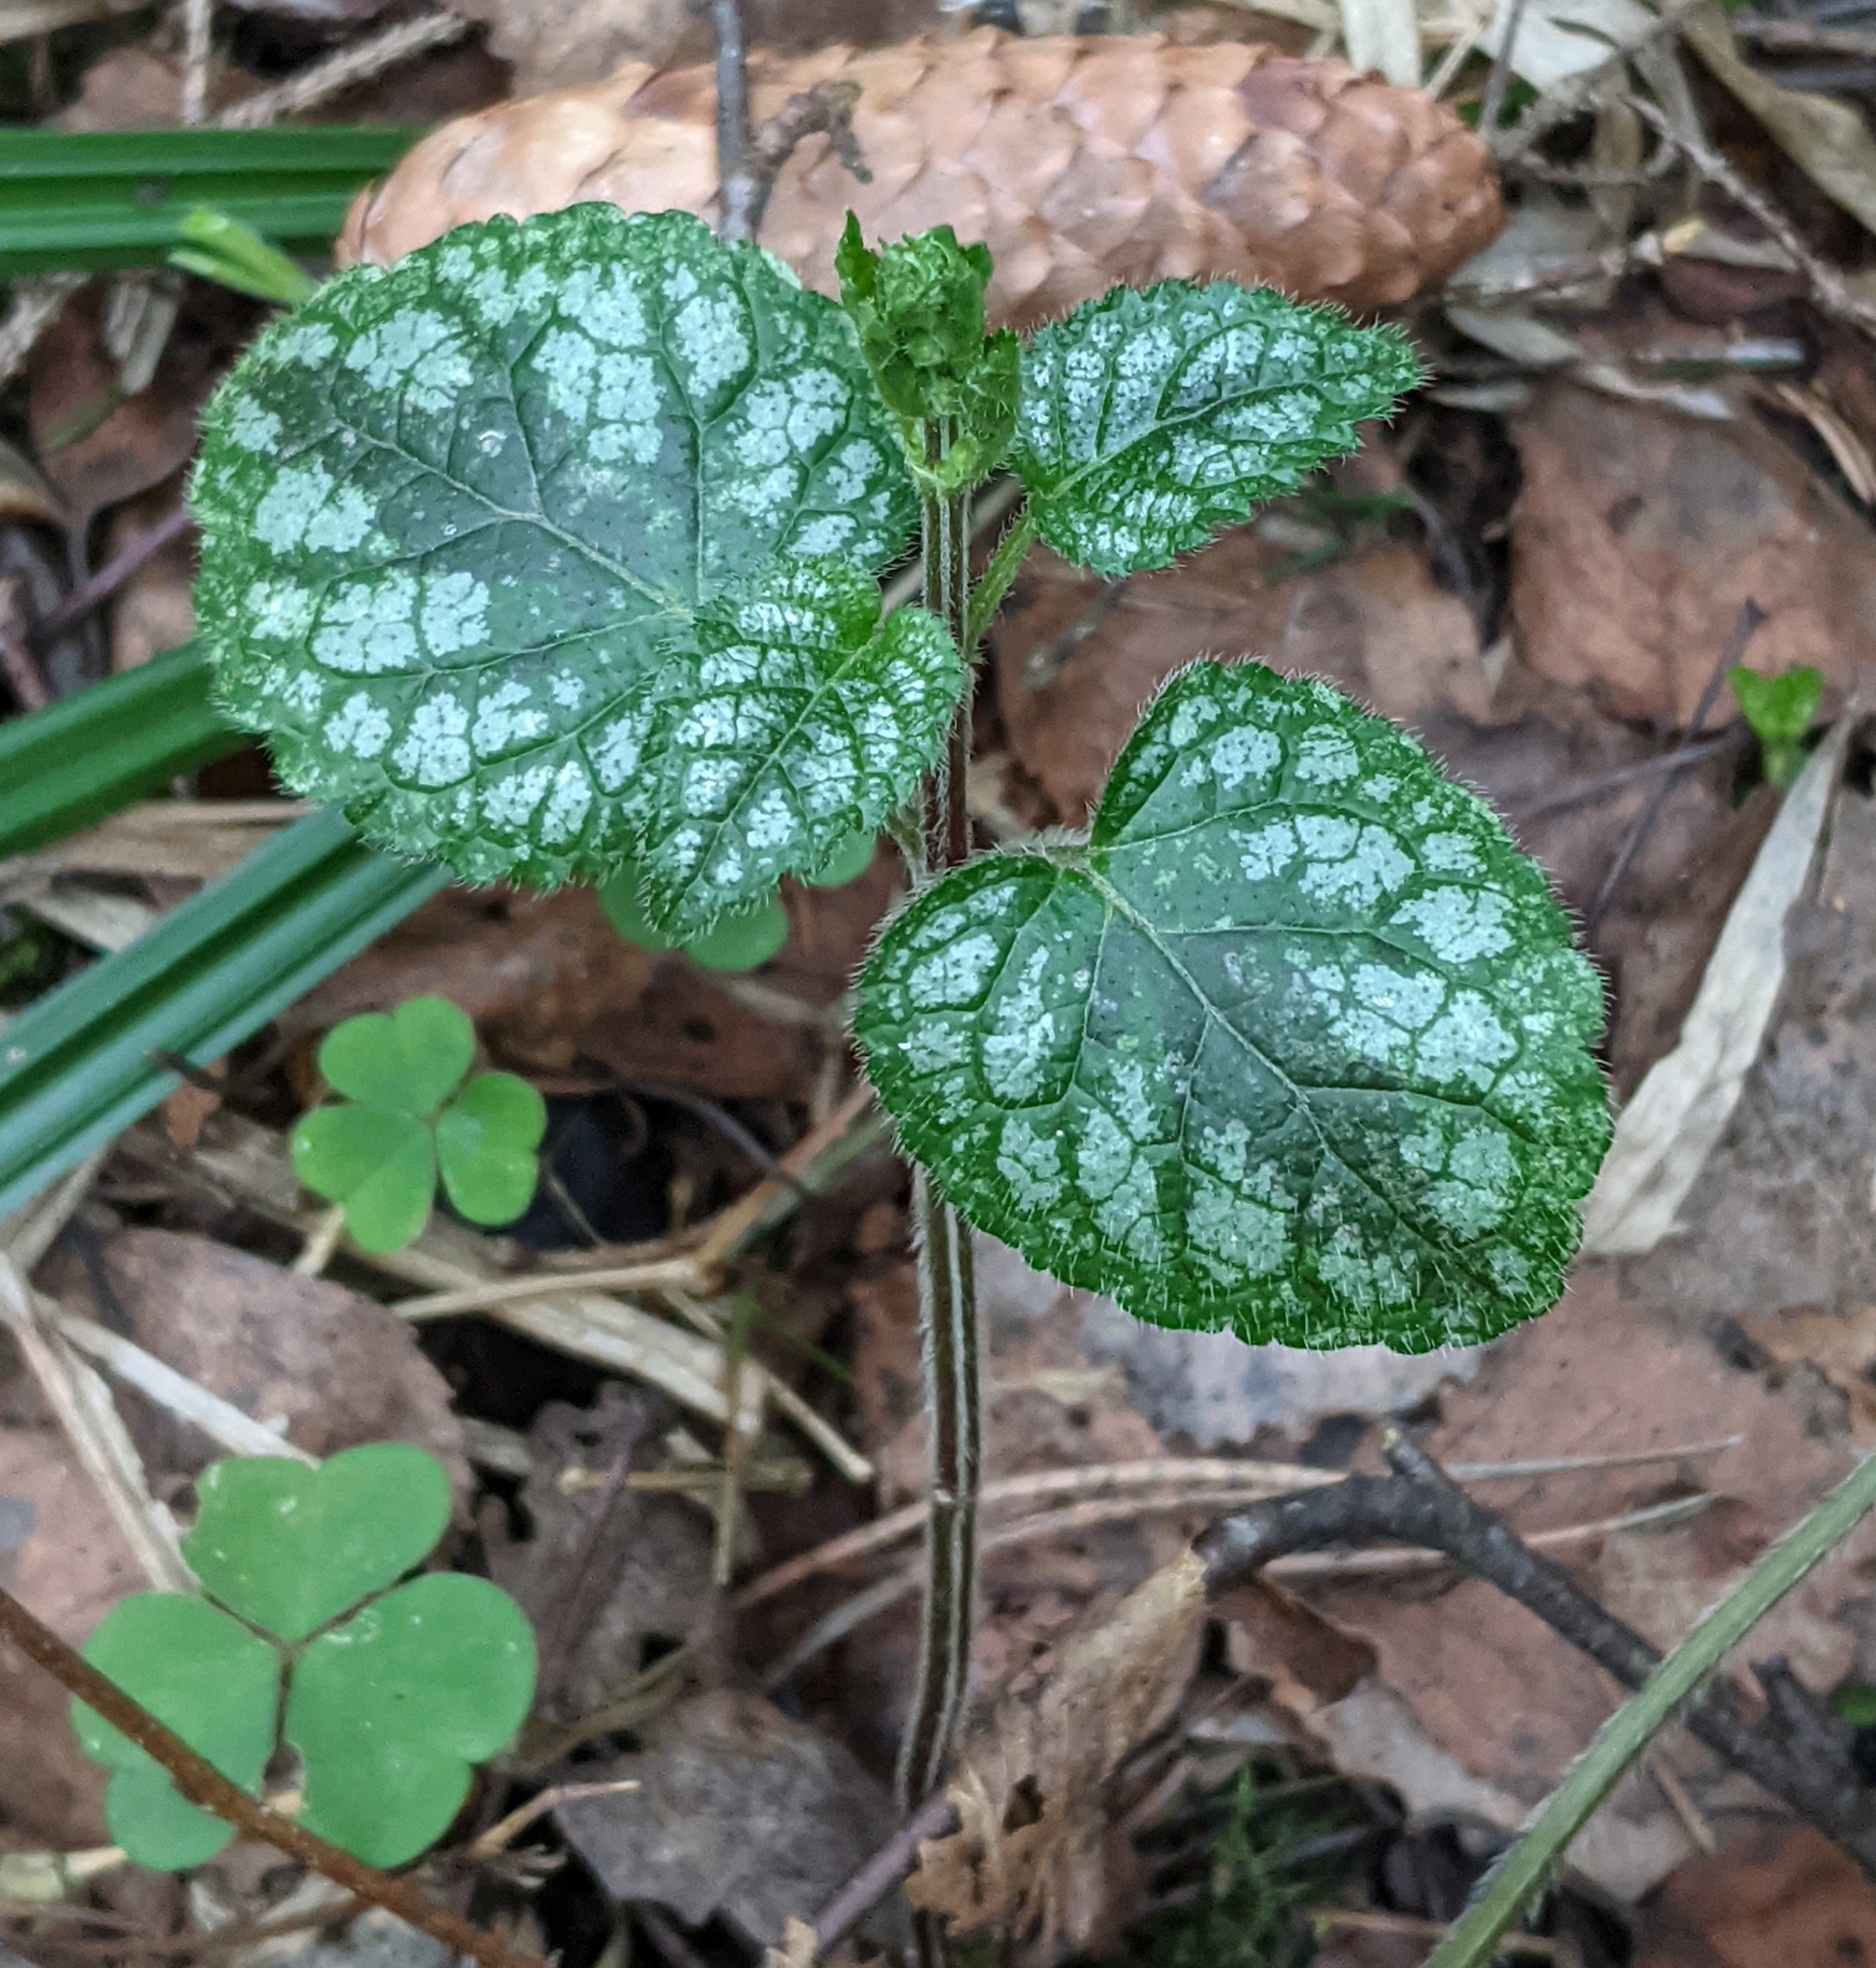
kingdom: Plantae
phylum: Tracheophyta
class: Magnoliopsida
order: Lamiales
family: Lamiaceae
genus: Lamium
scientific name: Lamium galeobdolon
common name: Yellow archangel
